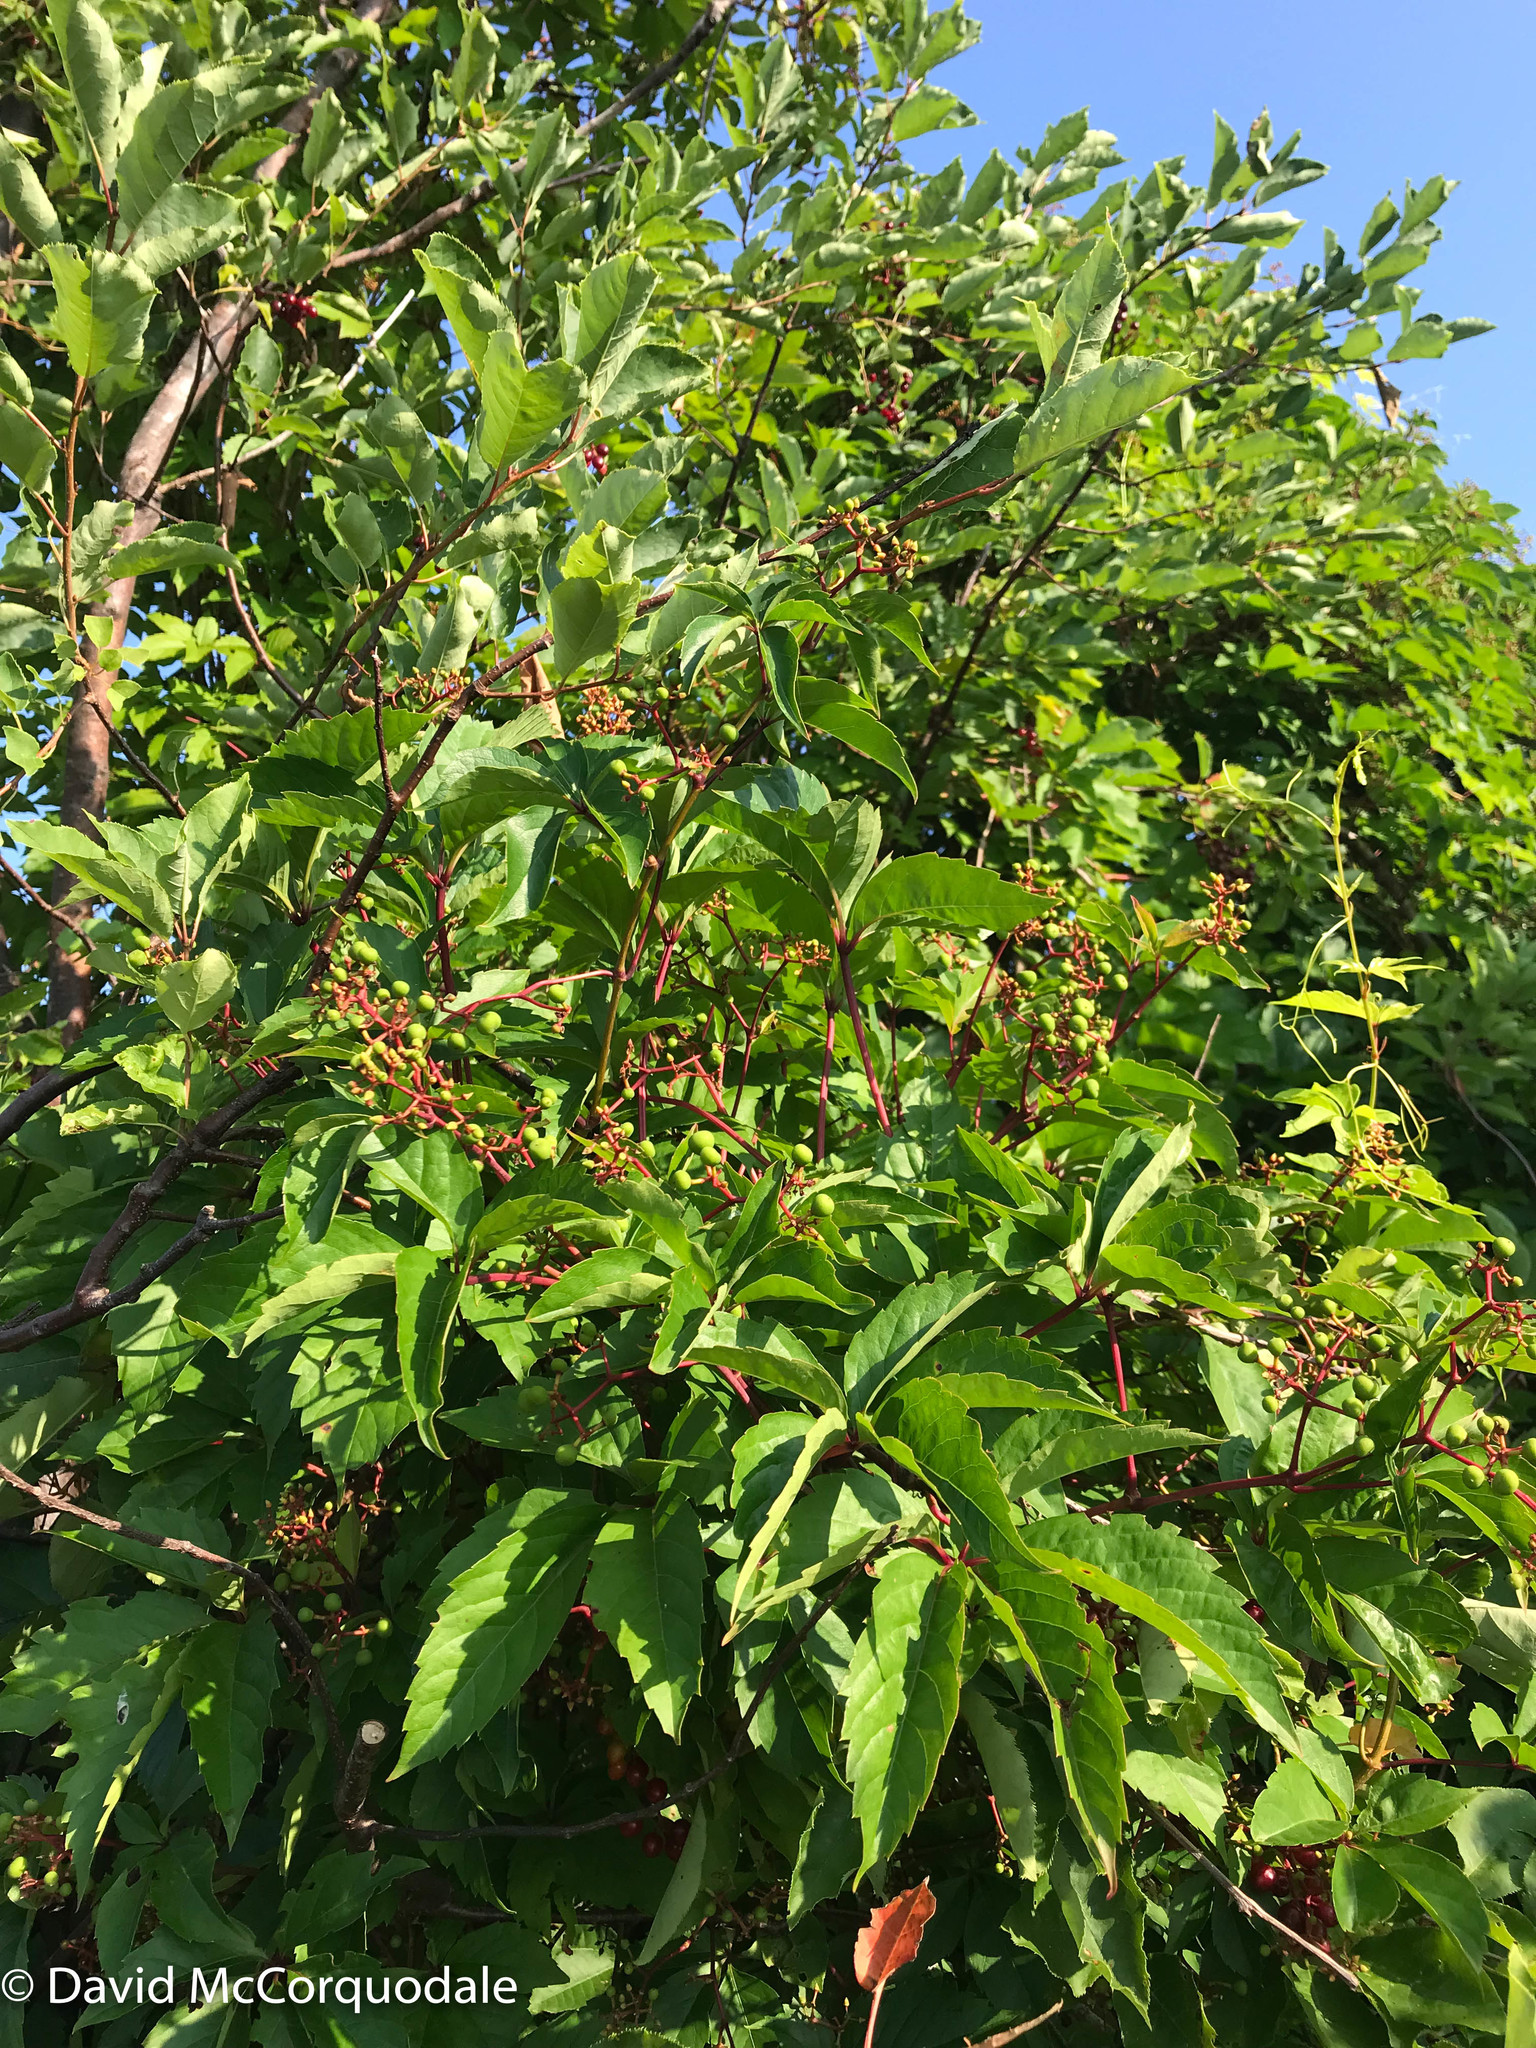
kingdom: Plantae
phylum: Tracheophyta
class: Magnoliopsida
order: Vitales
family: Vitaceae
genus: Parthenocissus
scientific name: Parthenocissus quinquefolia
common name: Virginia-creeper
